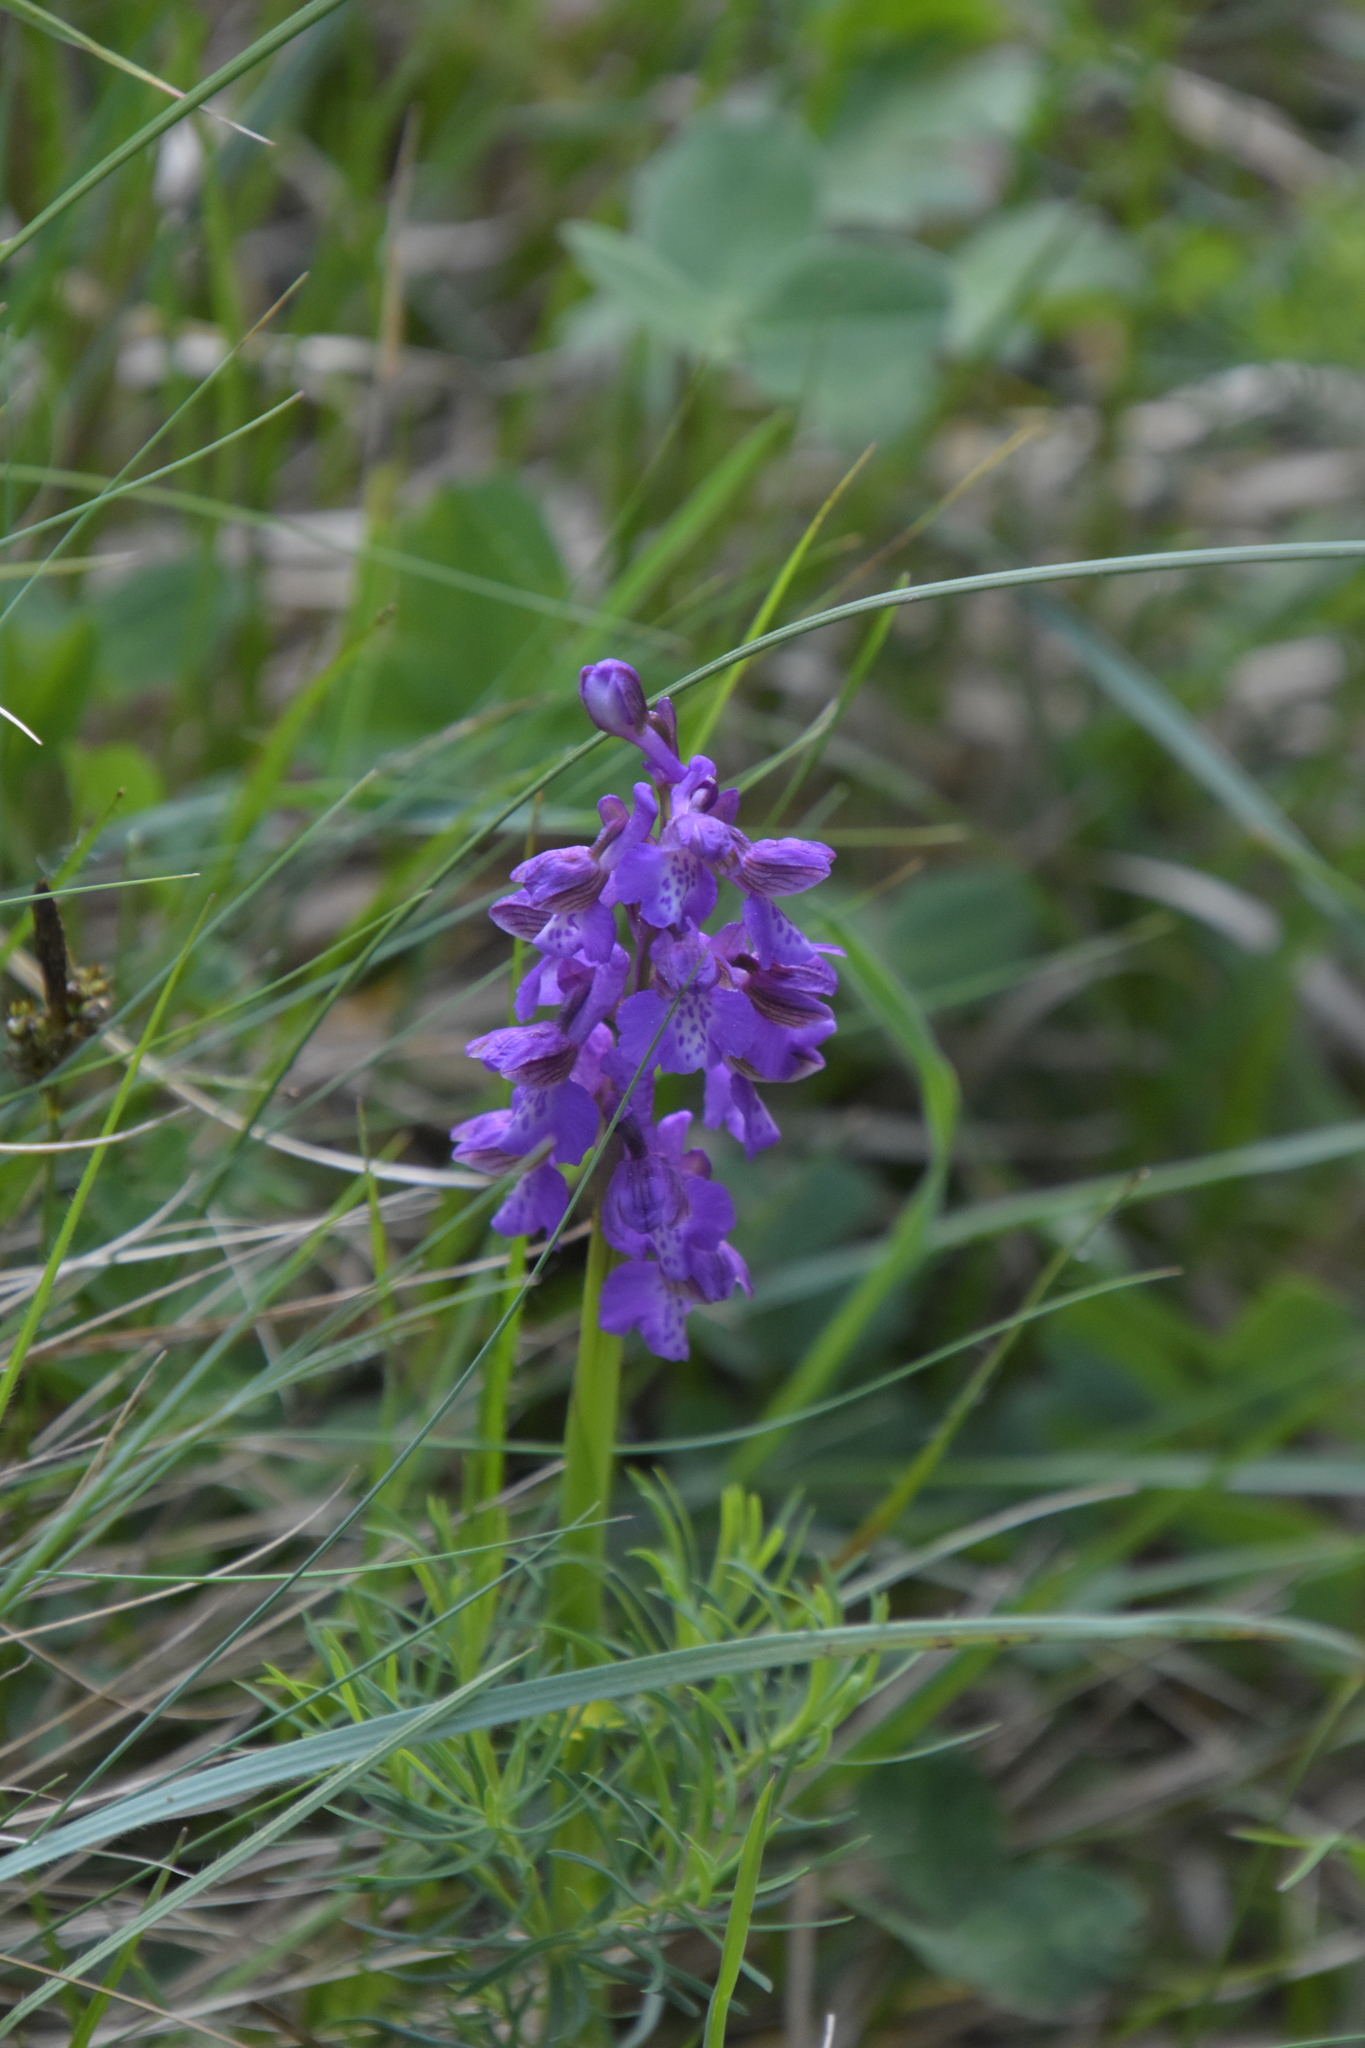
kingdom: Plantae
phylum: Tracheophyta
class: Liliopsida
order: Asparagales
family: Orchidaceae
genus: Anacamptis
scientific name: Anacamptis morio
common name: Green-winged orchid
